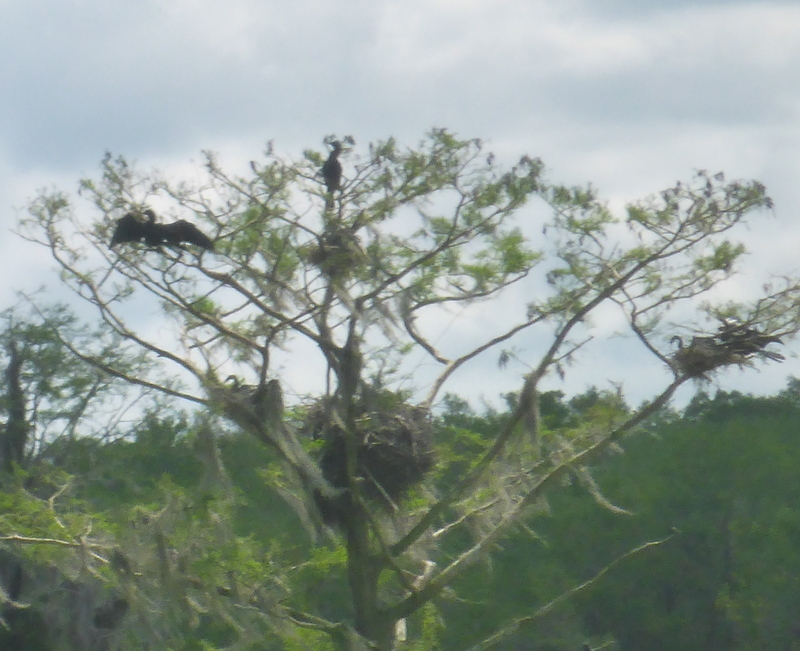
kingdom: Animalia
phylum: Chordata
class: Aves
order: Suliformes
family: Anhingidae
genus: Anhinga
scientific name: Anhinga anhinga
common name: Anhinga
